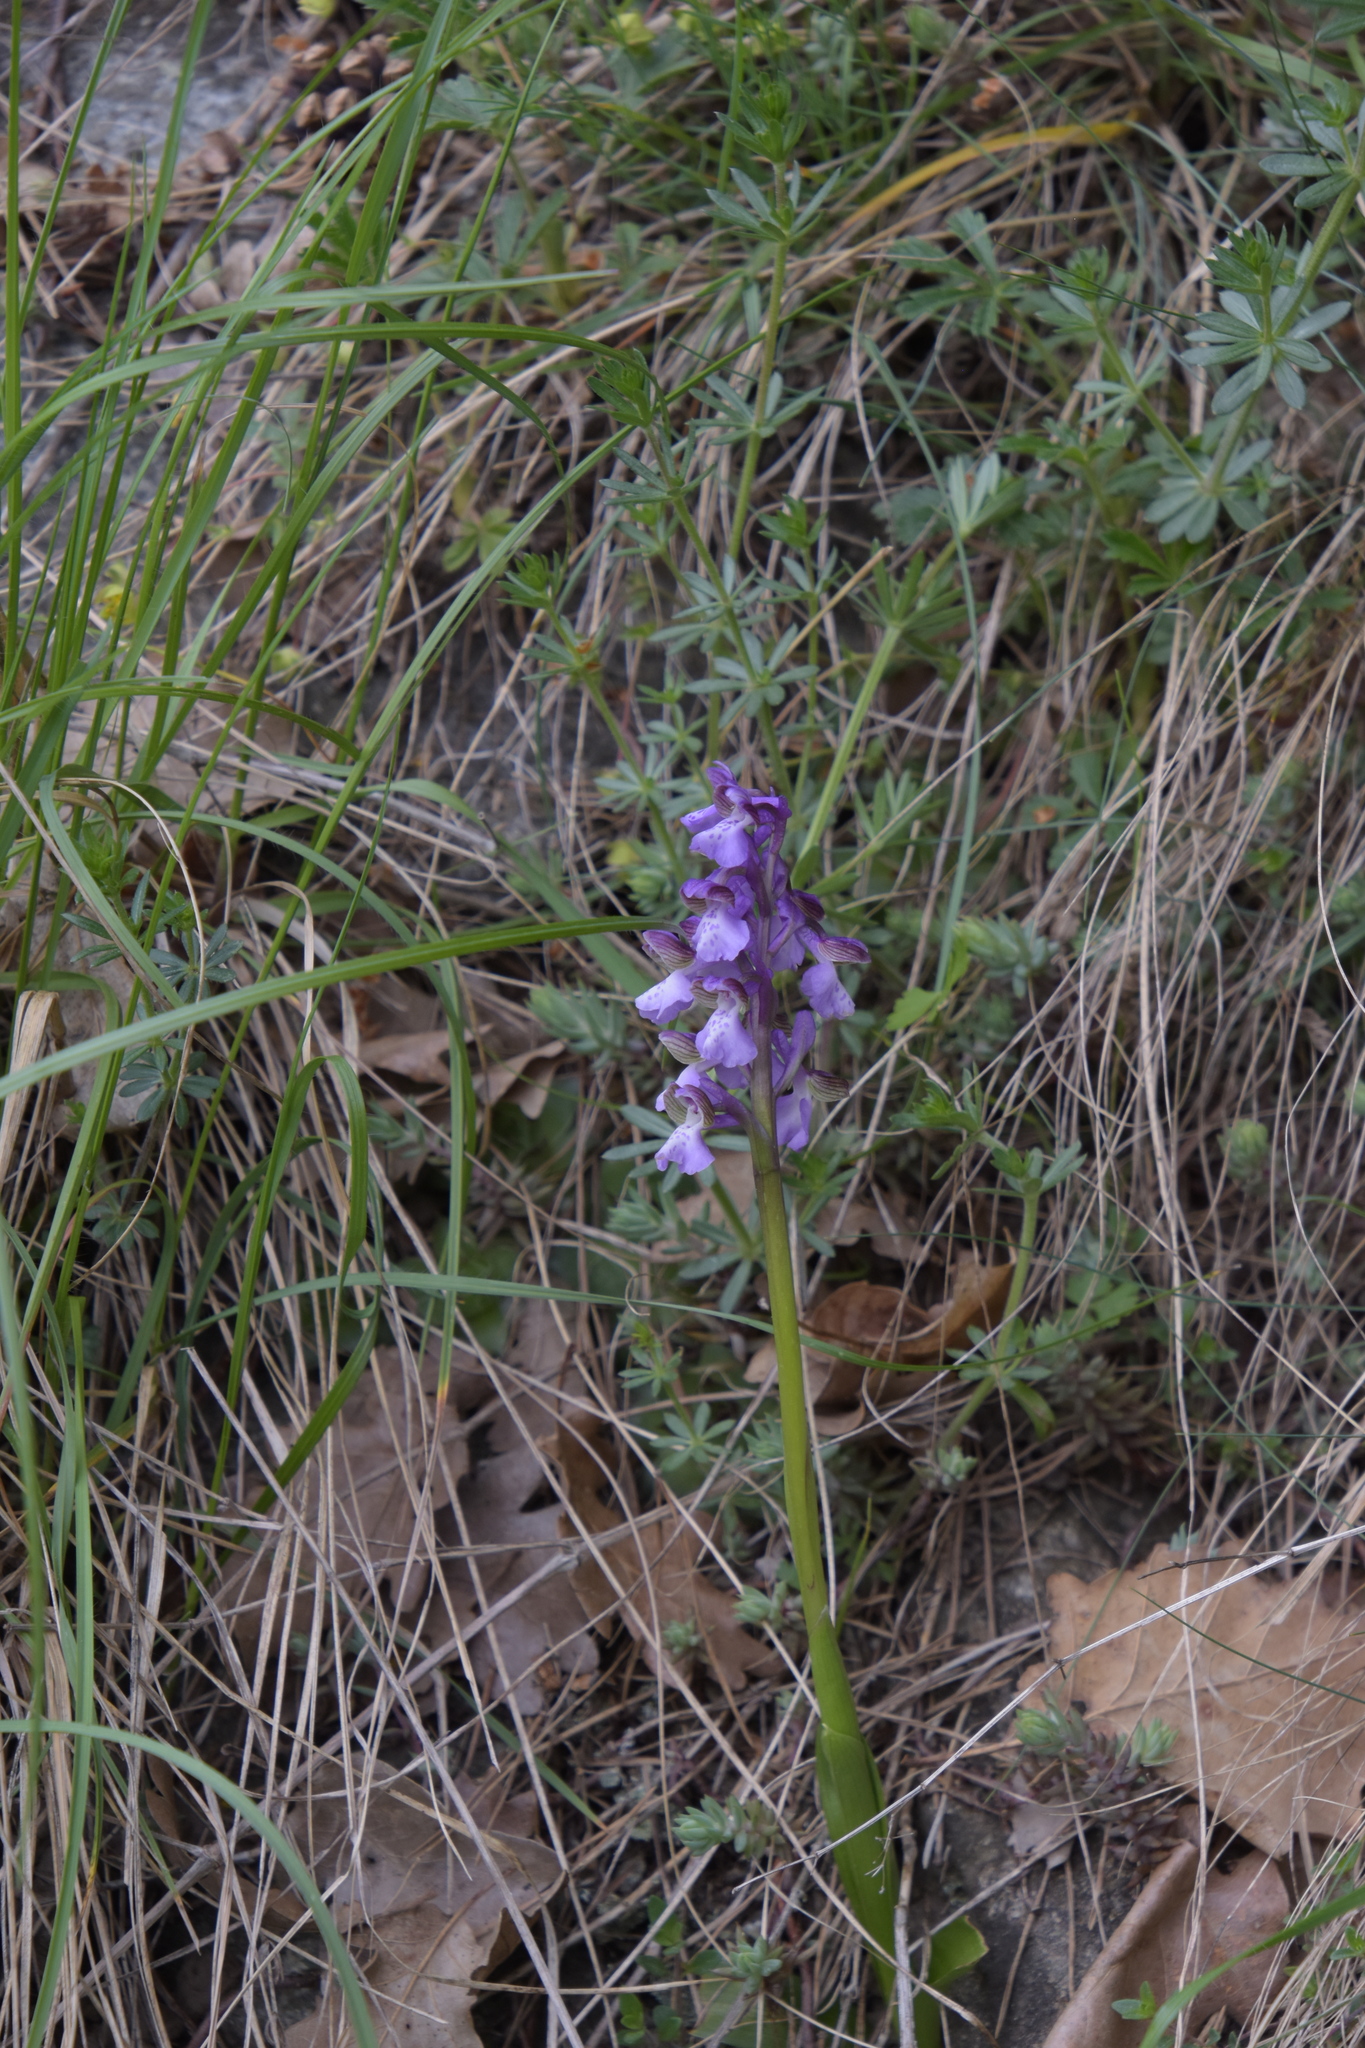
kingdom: Plantae
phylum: Tracheophyta
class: Liliopsida
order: Asparagales
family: Orchidaceae
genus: Anacamptis
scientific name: Anacamptis morio
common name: Green-winged orchid
